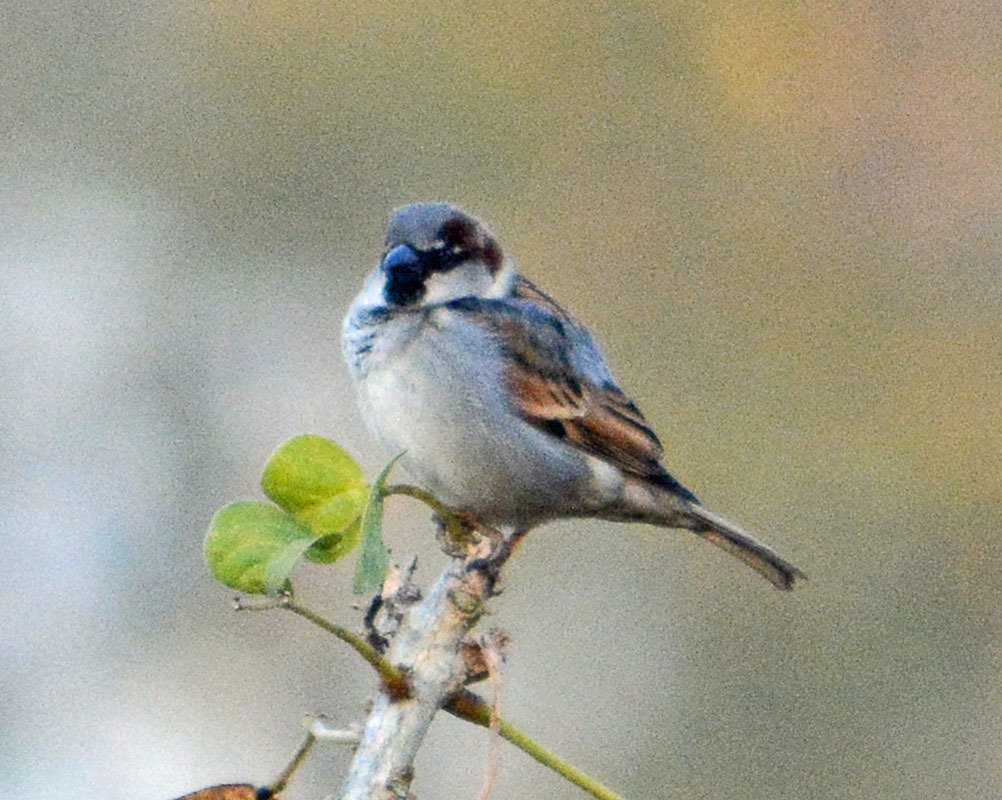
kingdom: Animalia
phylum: Chordata
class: Aves
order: Passeriformes
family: Passeridae
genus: Passer
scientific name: Passer domesticus
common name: House sparrow
